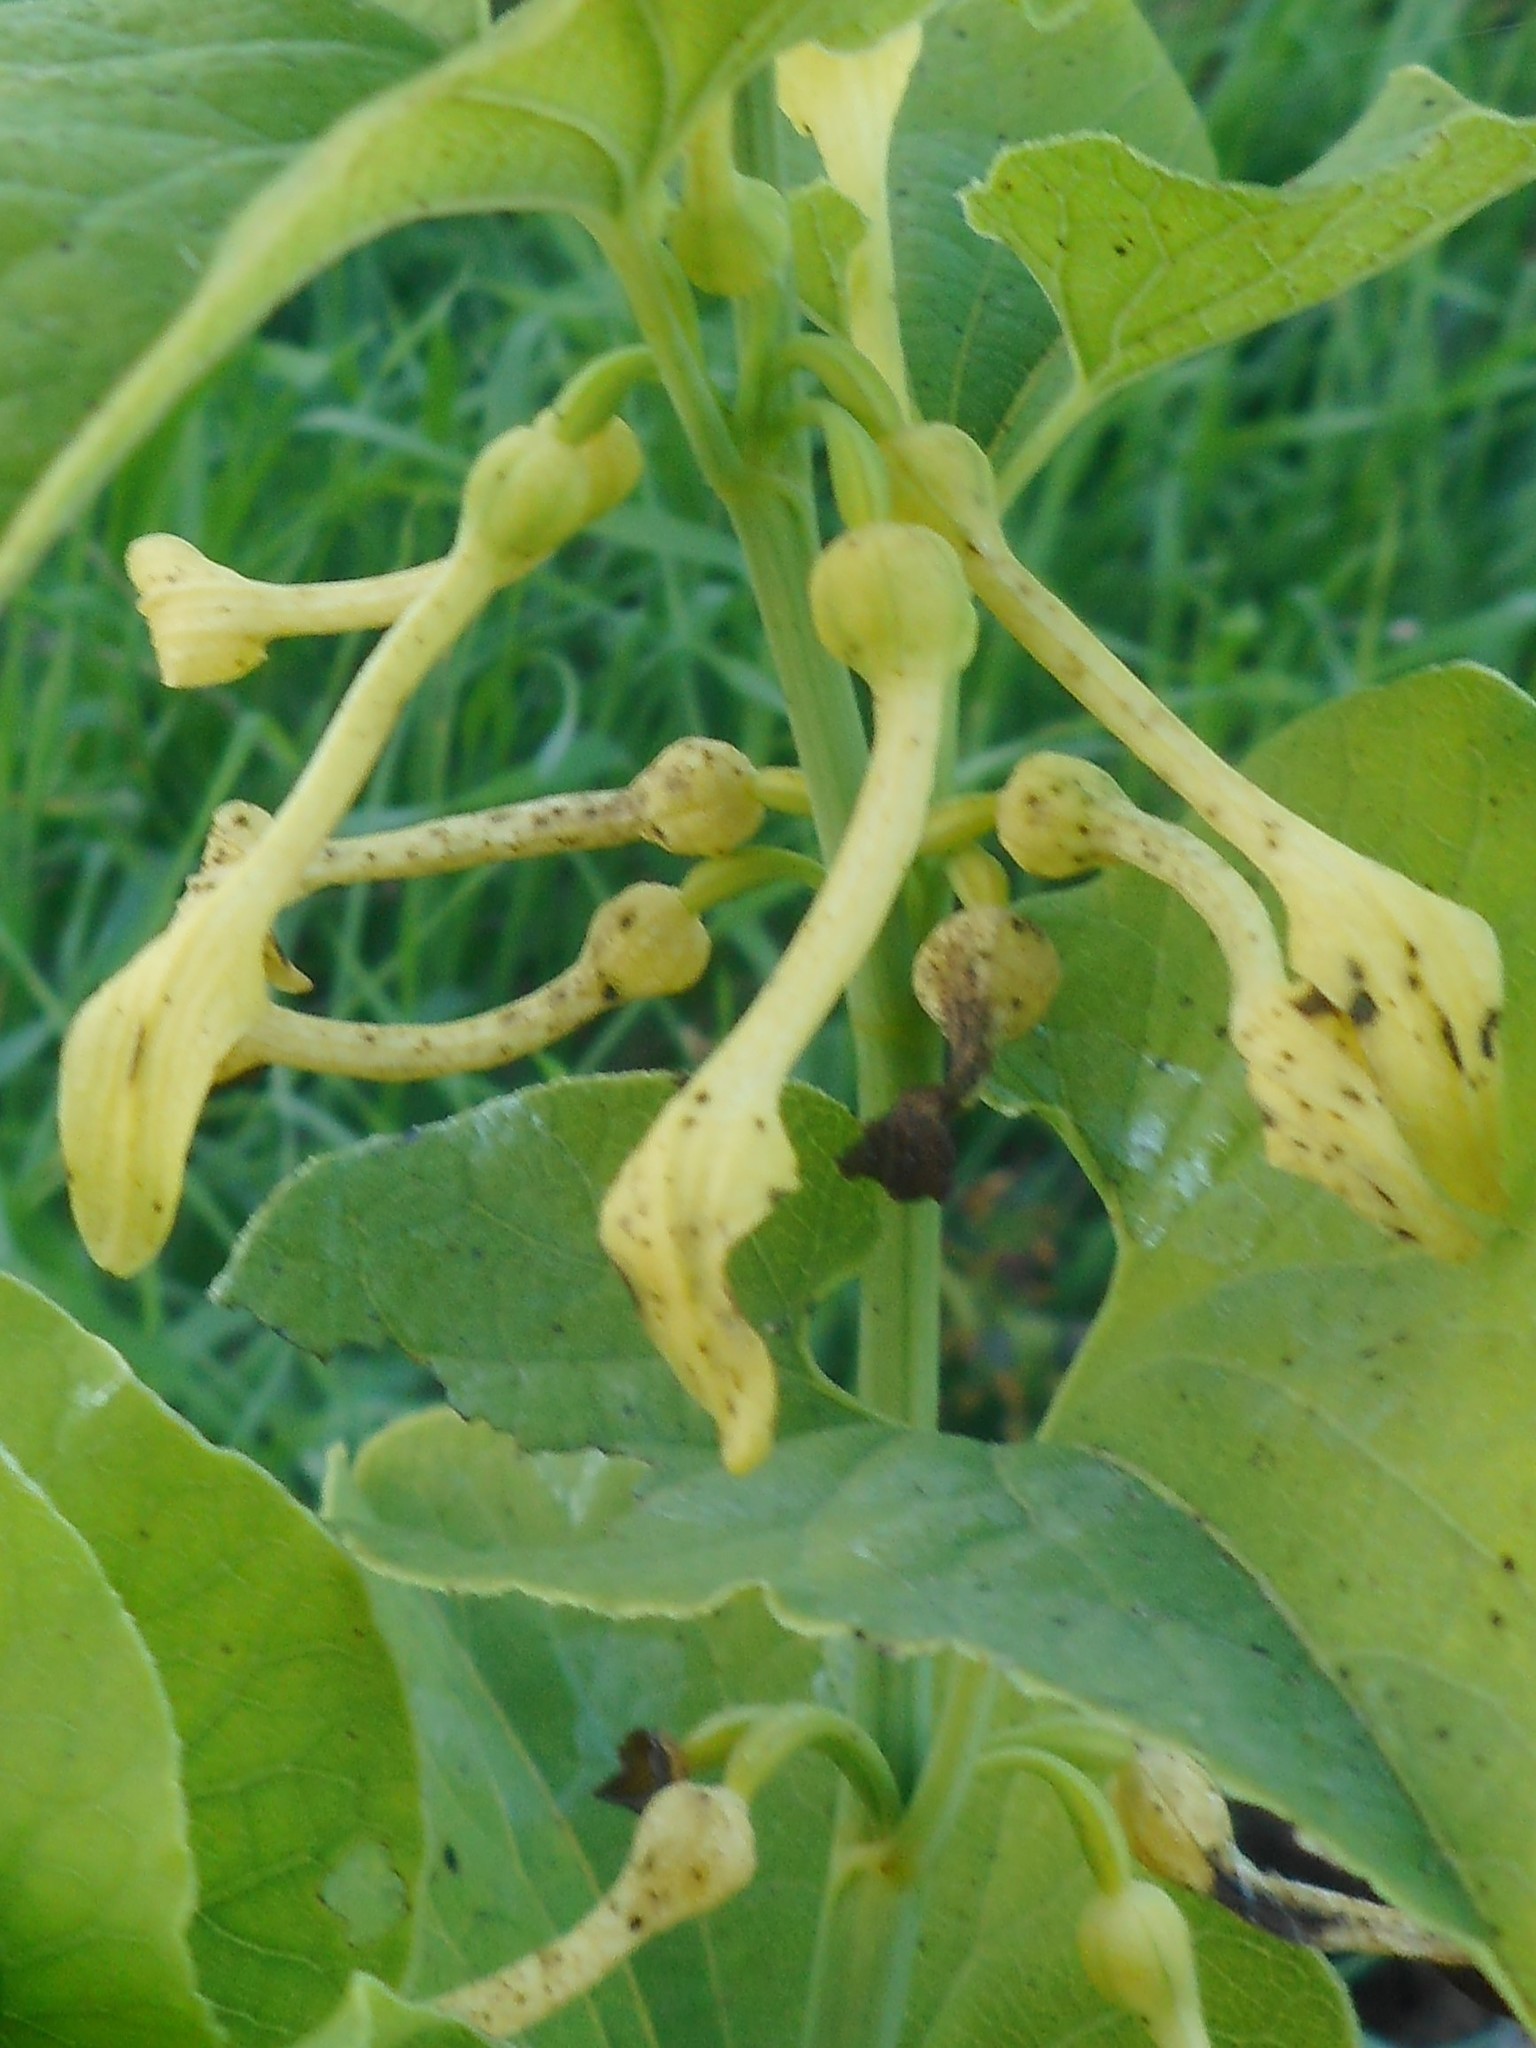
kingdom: Plantae
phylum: Tracheophyta
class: Magnoliopsida
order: Piperales
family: Aristolochiaceae
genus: Aristolochia
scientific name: Aristolochia clematitis
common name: Birthwort
